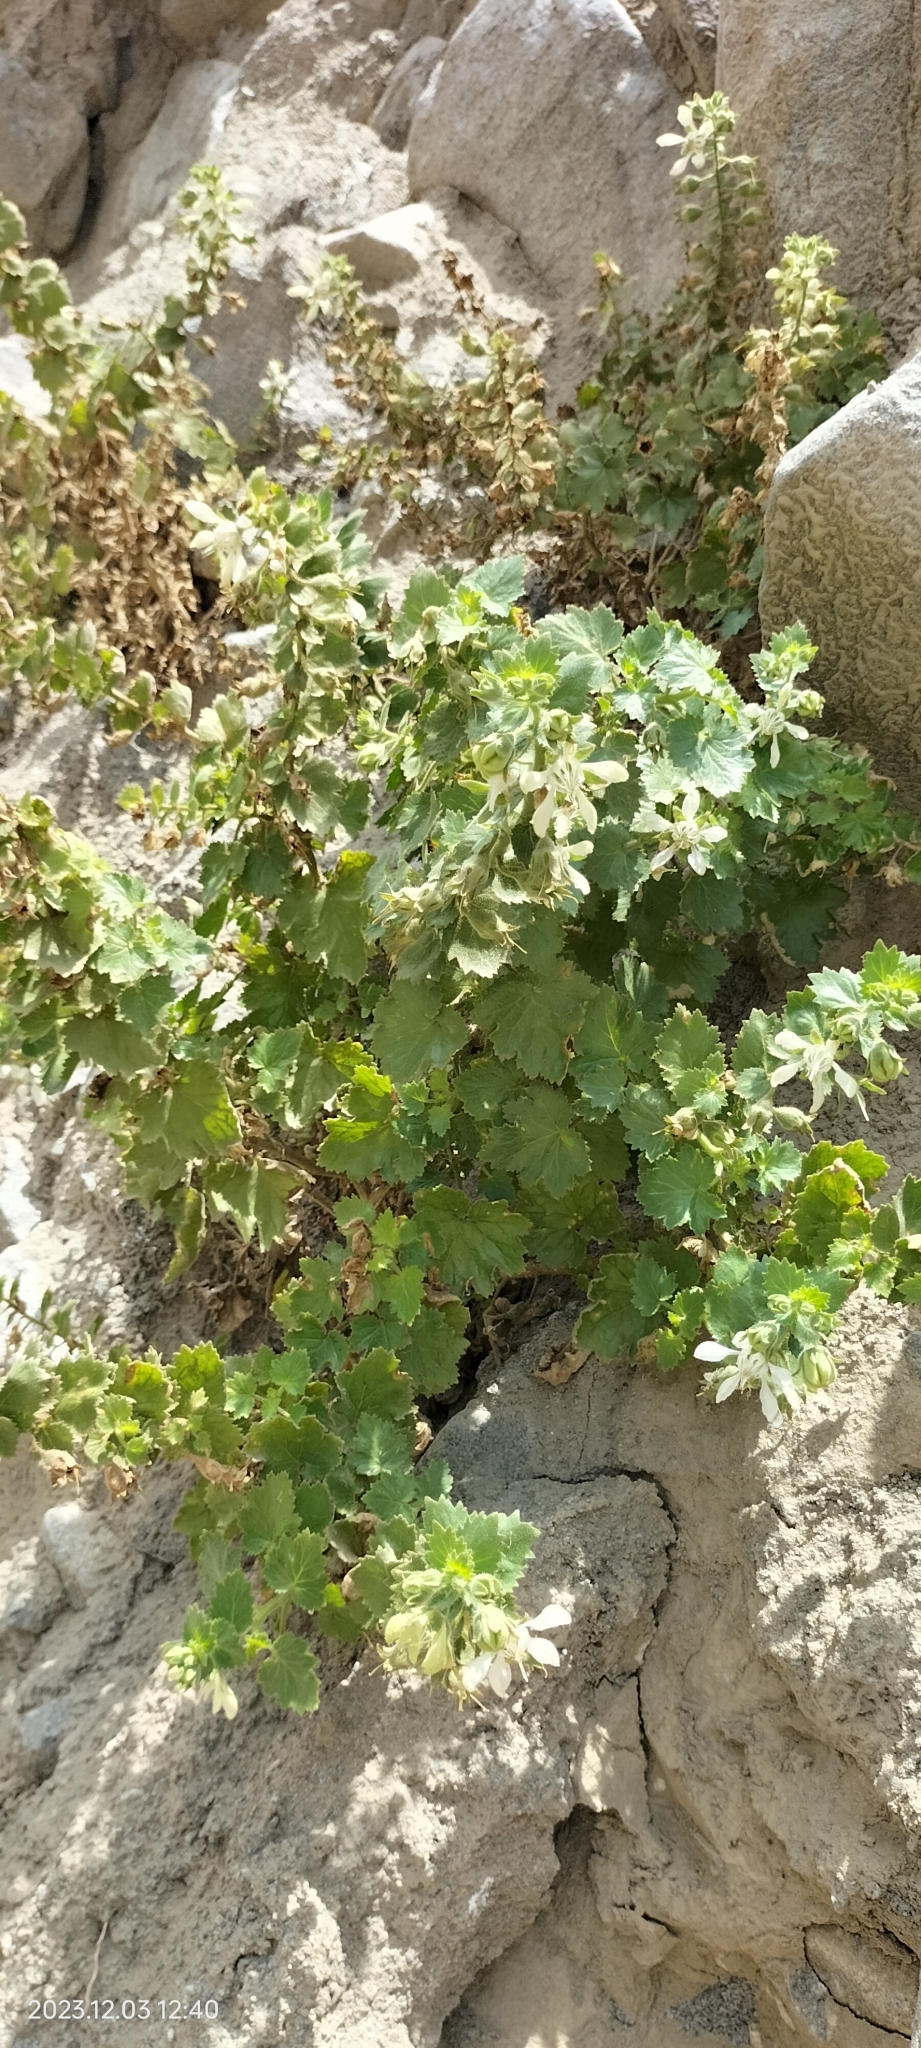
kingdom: Plantae
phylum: Tracheophyta
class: Magnoliopsida
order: Cornales
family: Loasaceae
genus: Presliophytum
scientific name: Presliophytum heucherifolia
